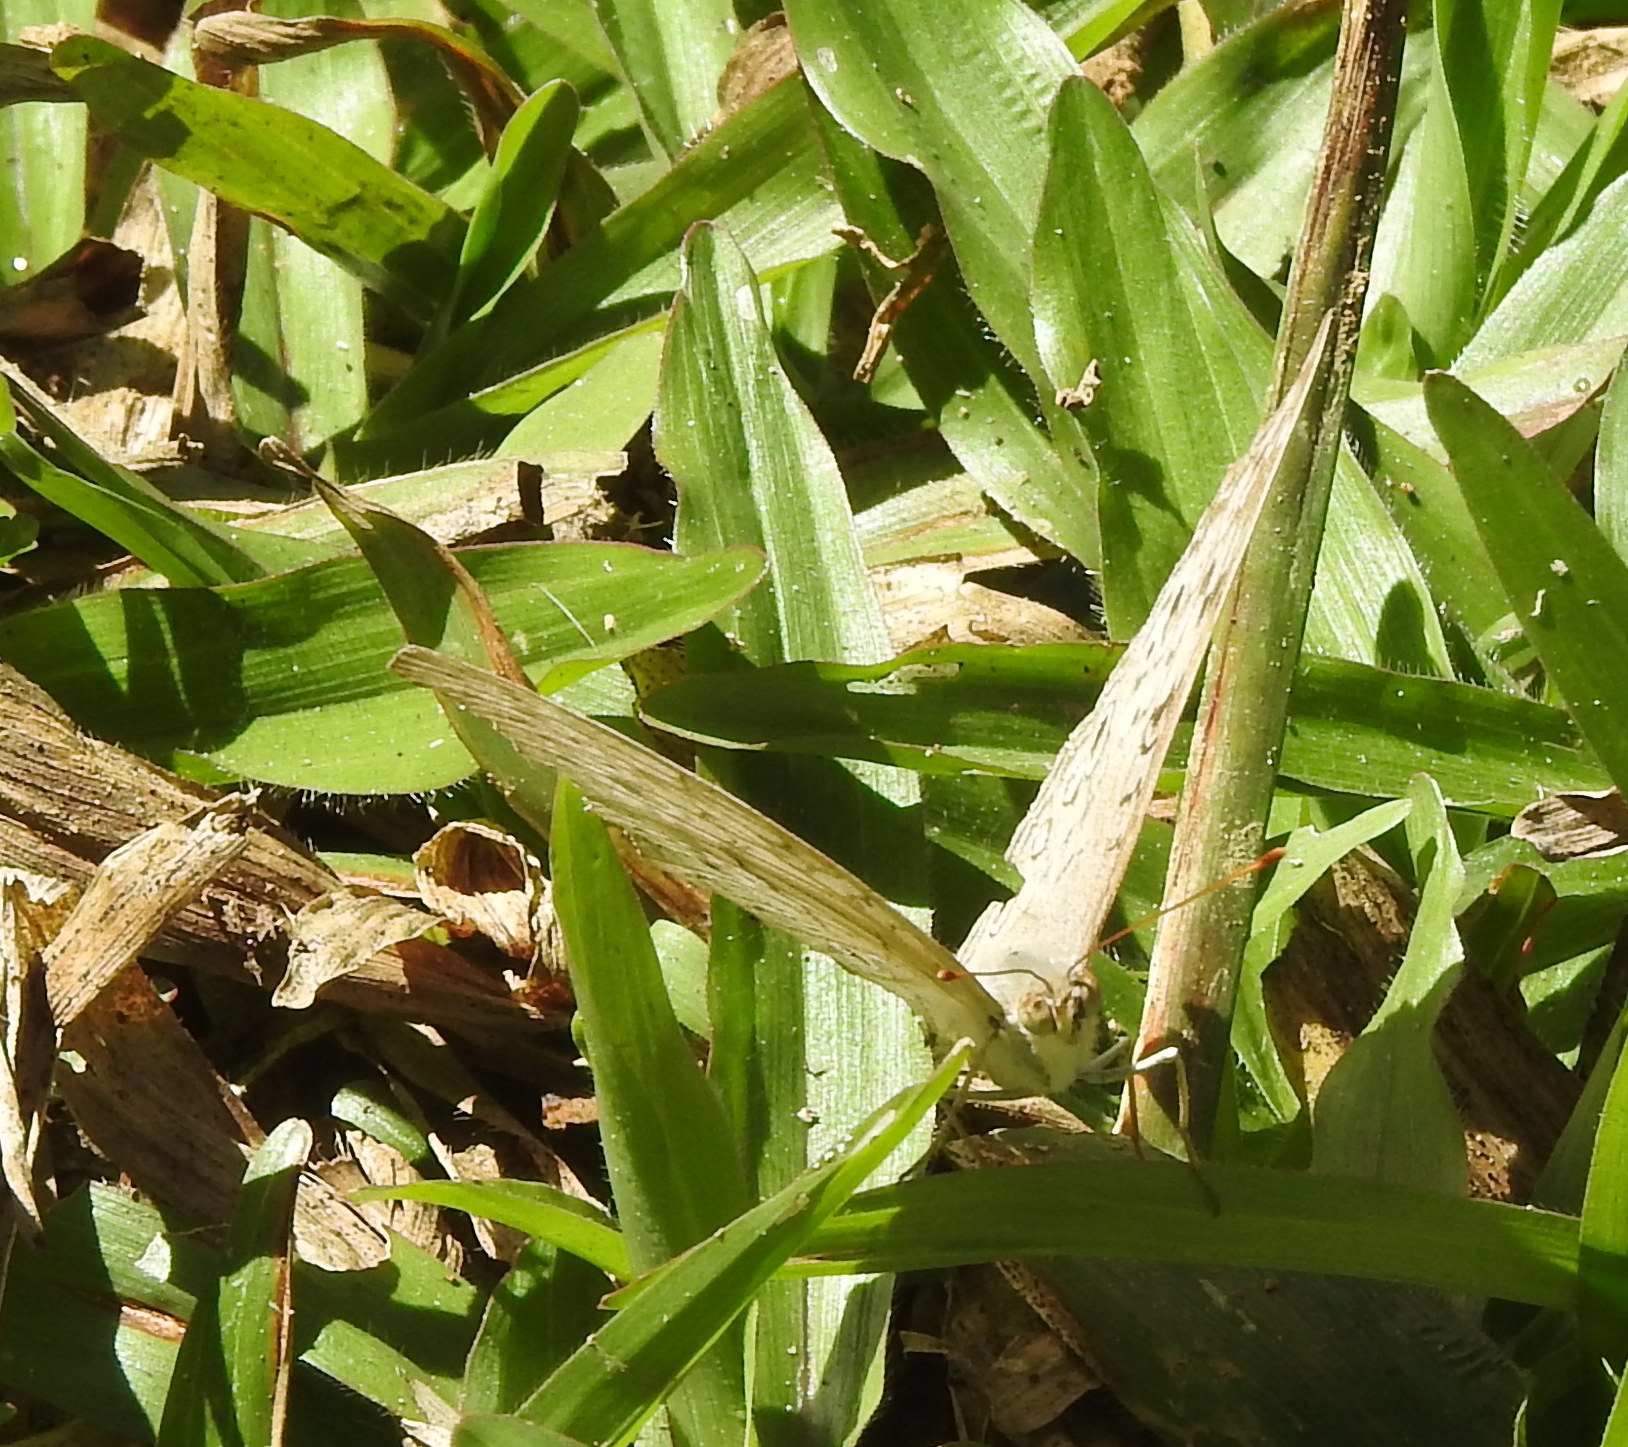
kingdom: Animalia
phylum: Arthropoda
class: Insecta
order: Lepidoptera
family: Nymphalidae
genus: Junonia
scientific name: Junonia atlites
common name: Grey pansy
